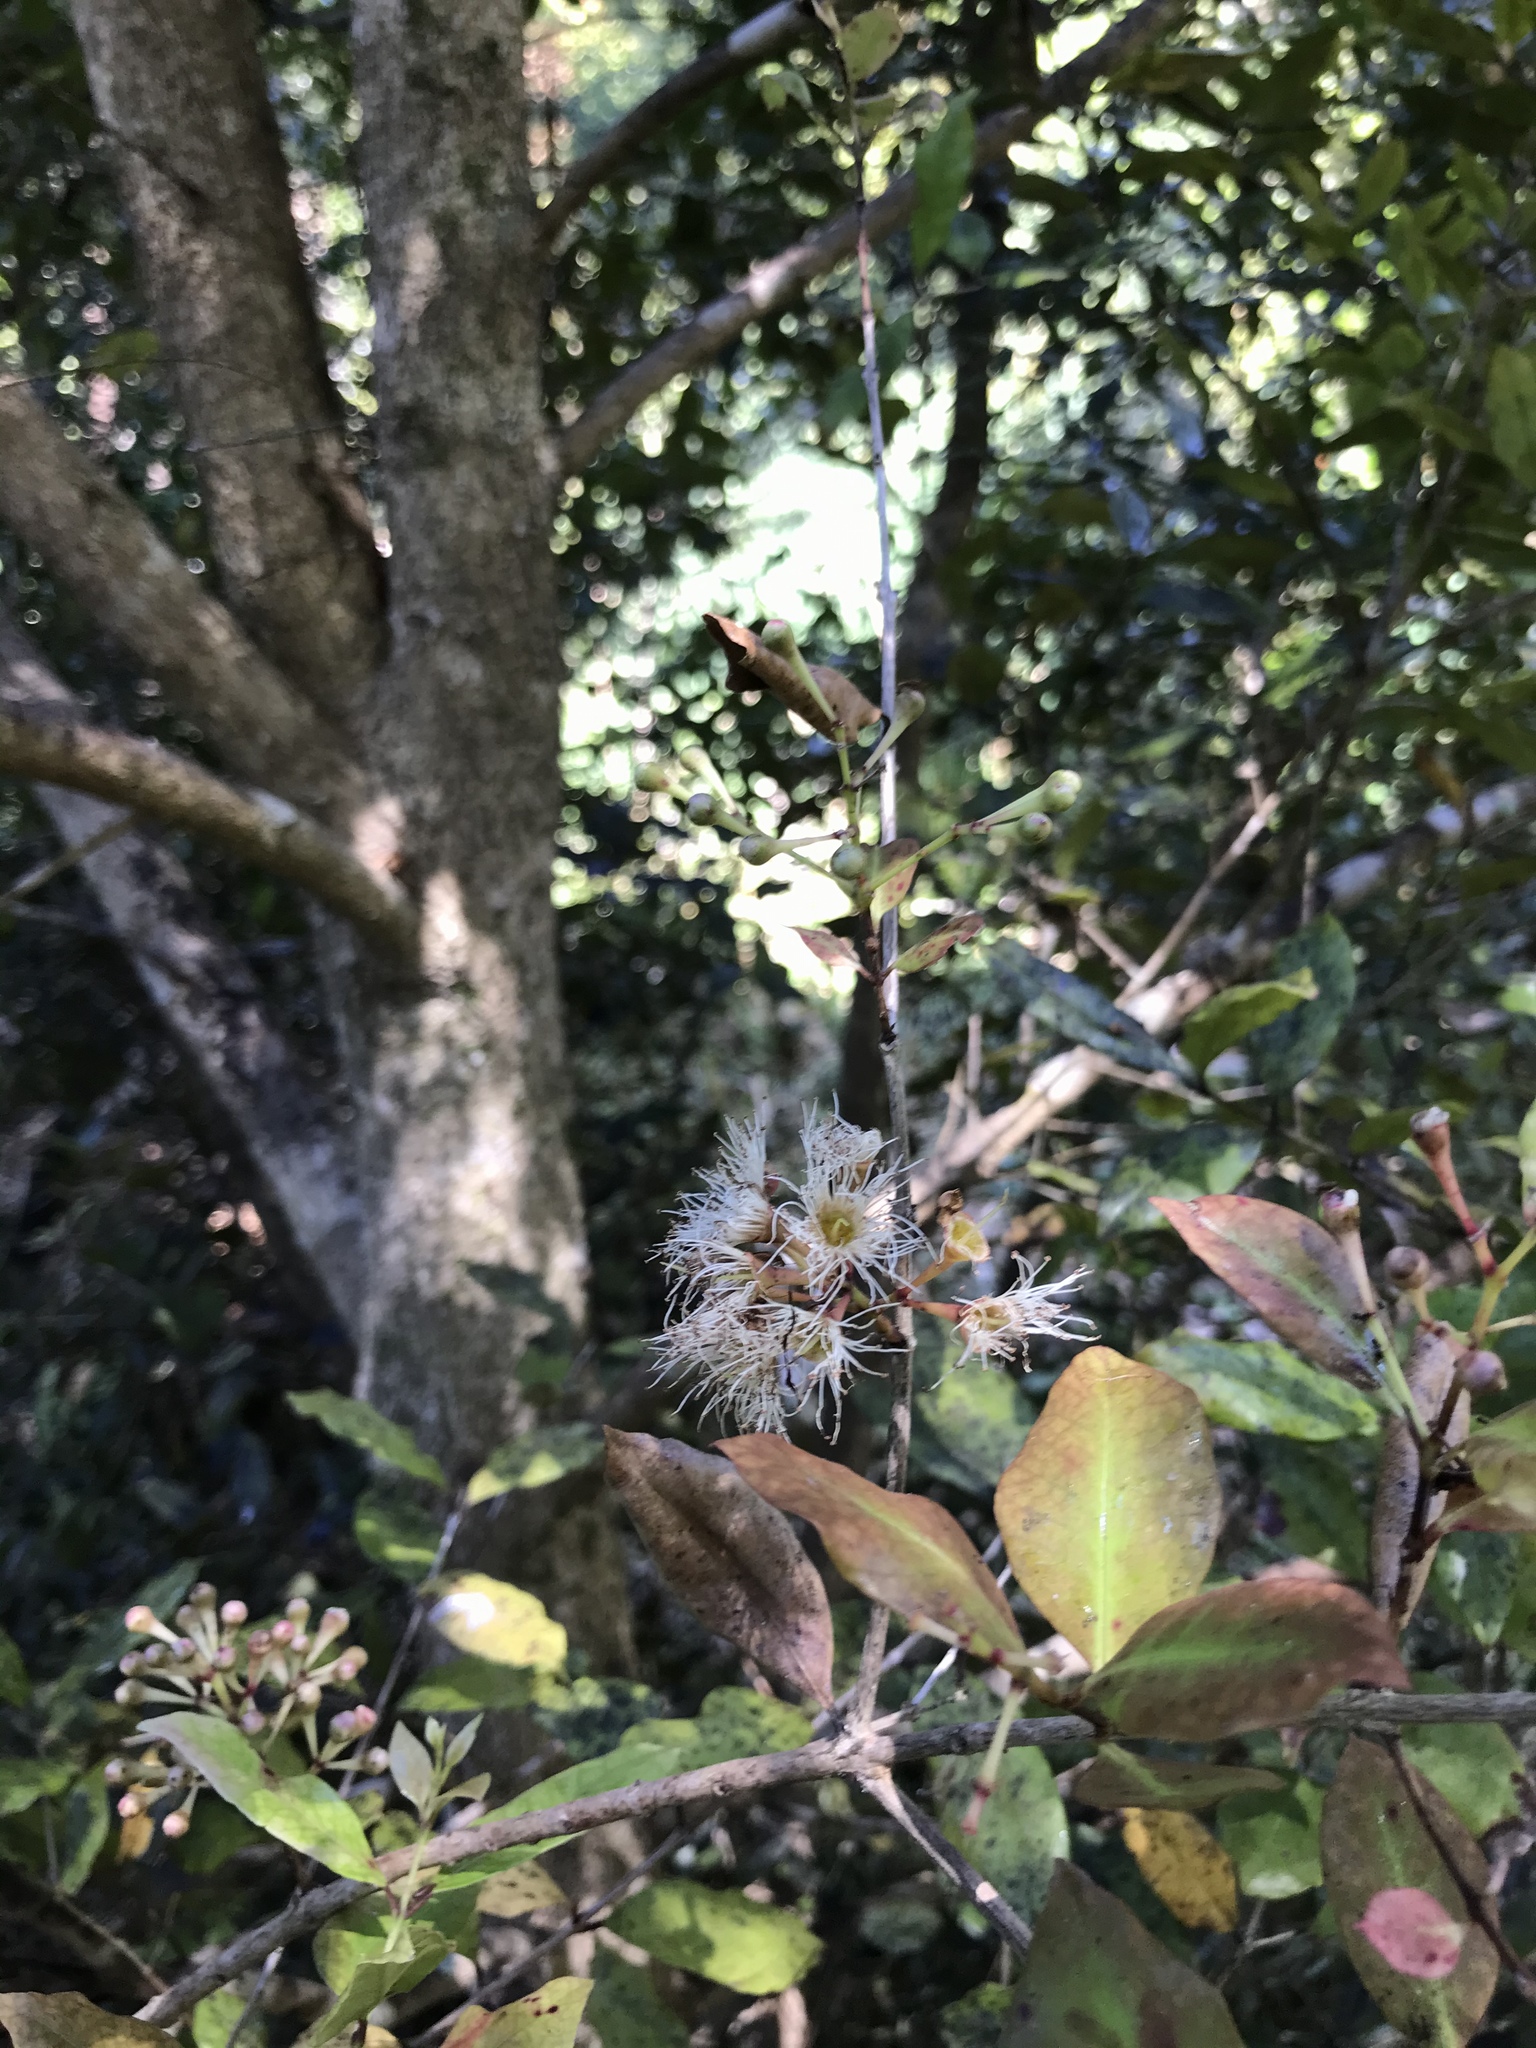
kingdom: Plantae
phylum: Tracheophyta
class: Magnoliopsida
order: Myrtales
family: Myrtaceae
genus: Syzygium
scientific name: Syzygium maire
